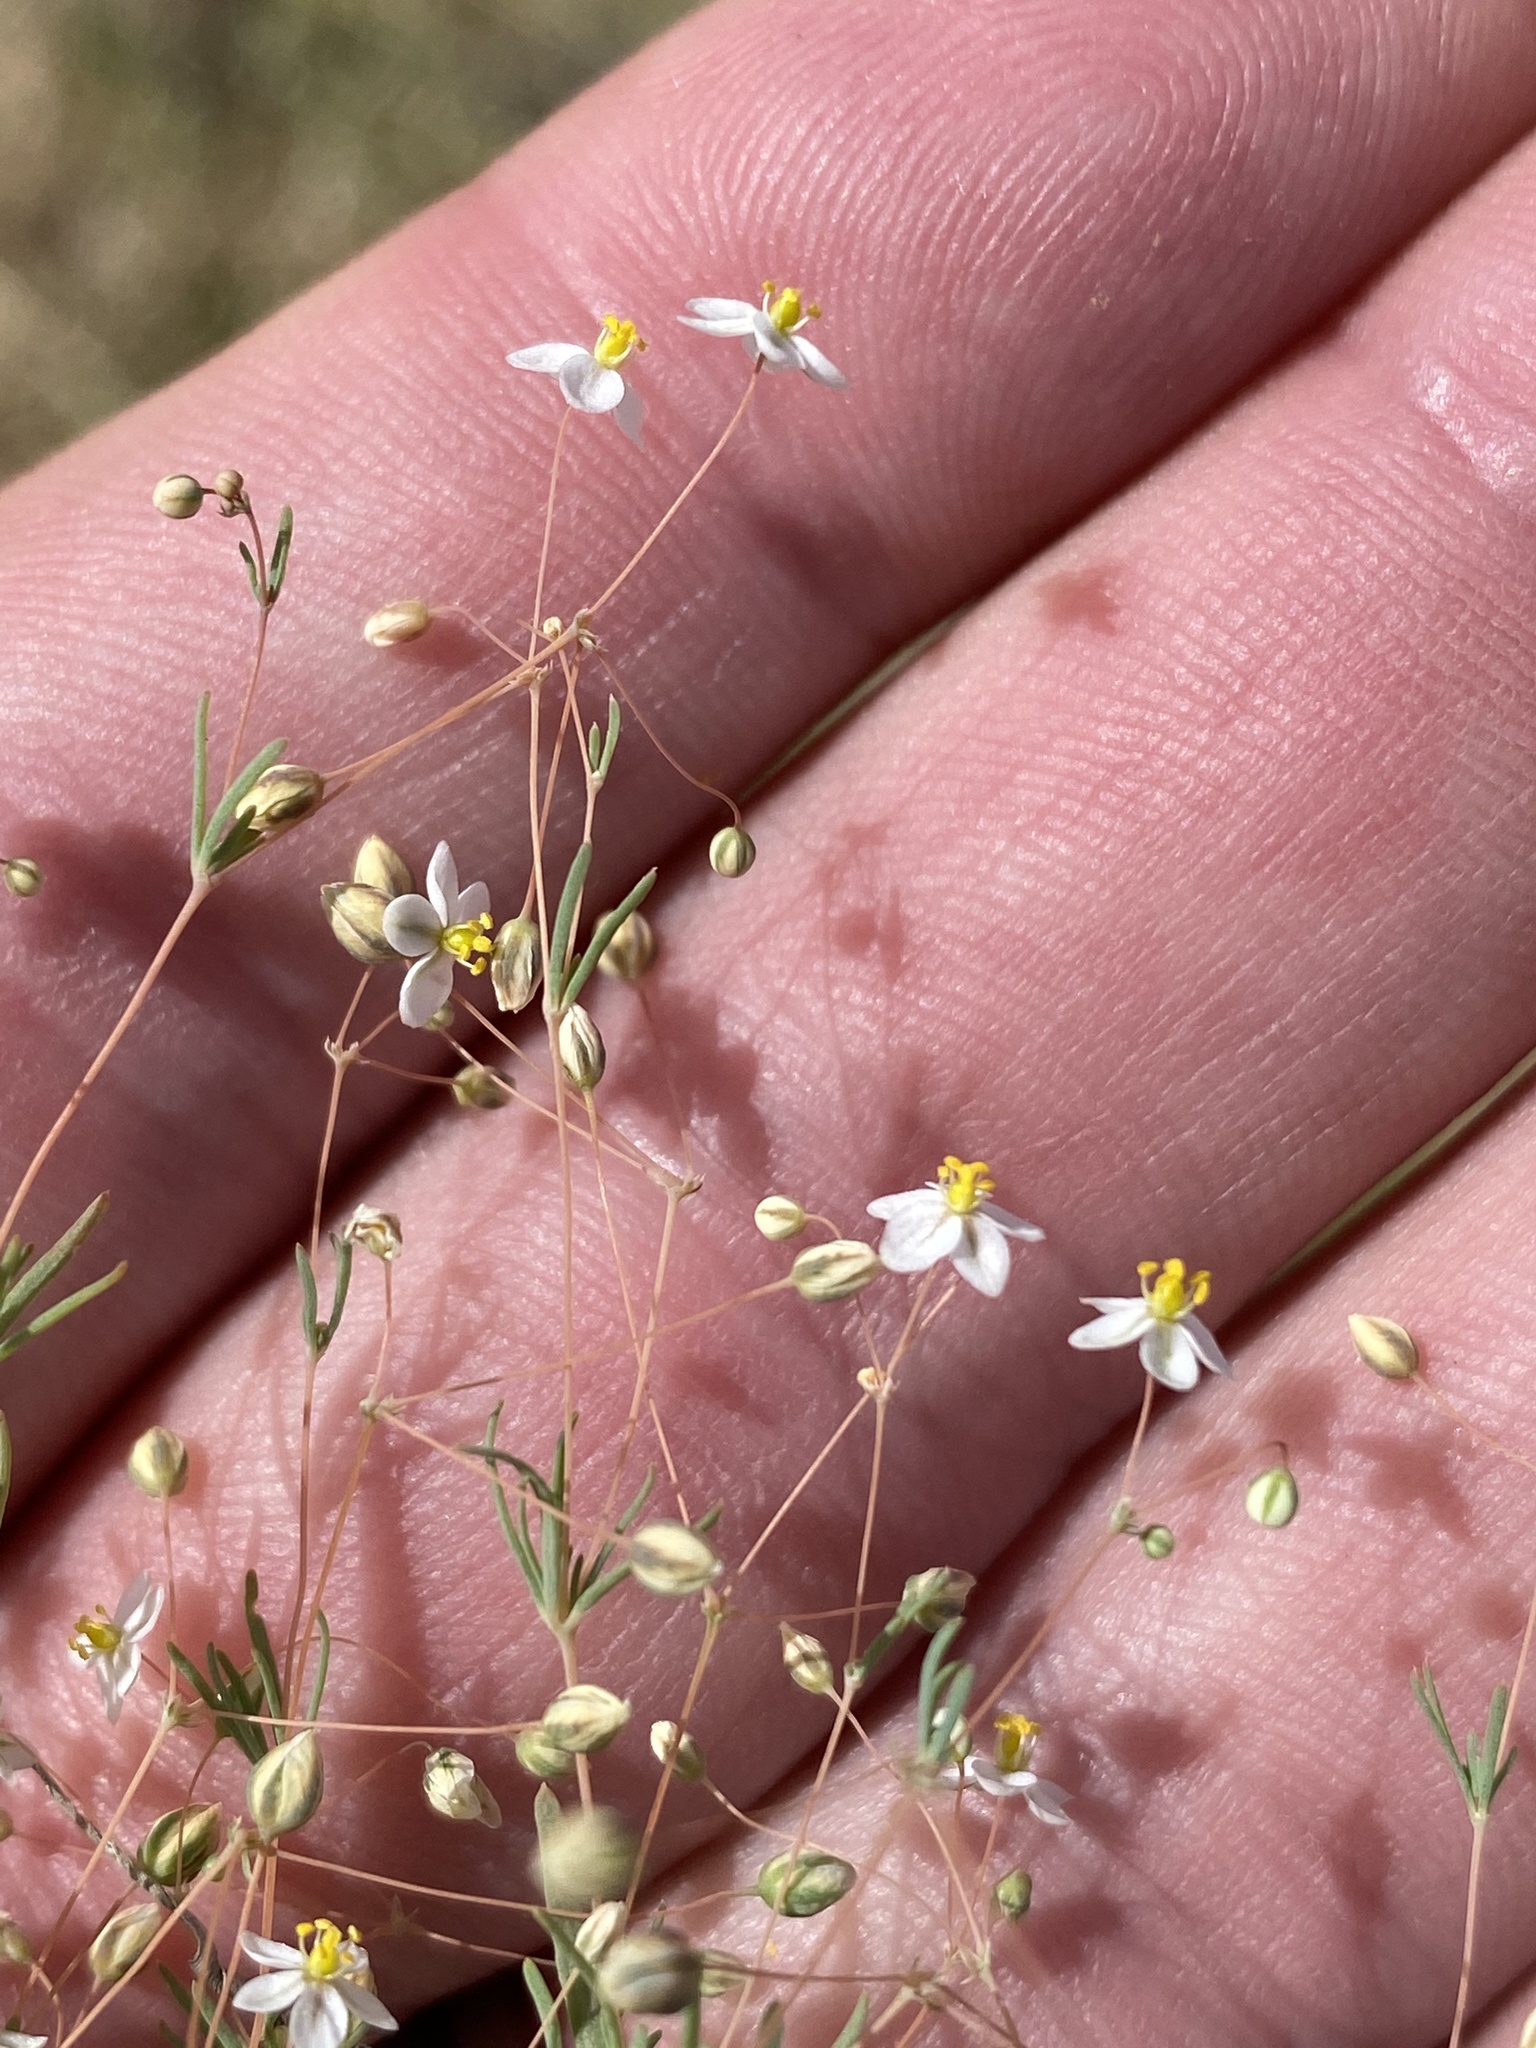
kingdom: Plantae
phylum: Tracheophyta
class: Magnoliopsida
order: Caryophyllales
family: Molluginaceae
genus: Hypertelis
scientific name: Hypertelis cerviana
